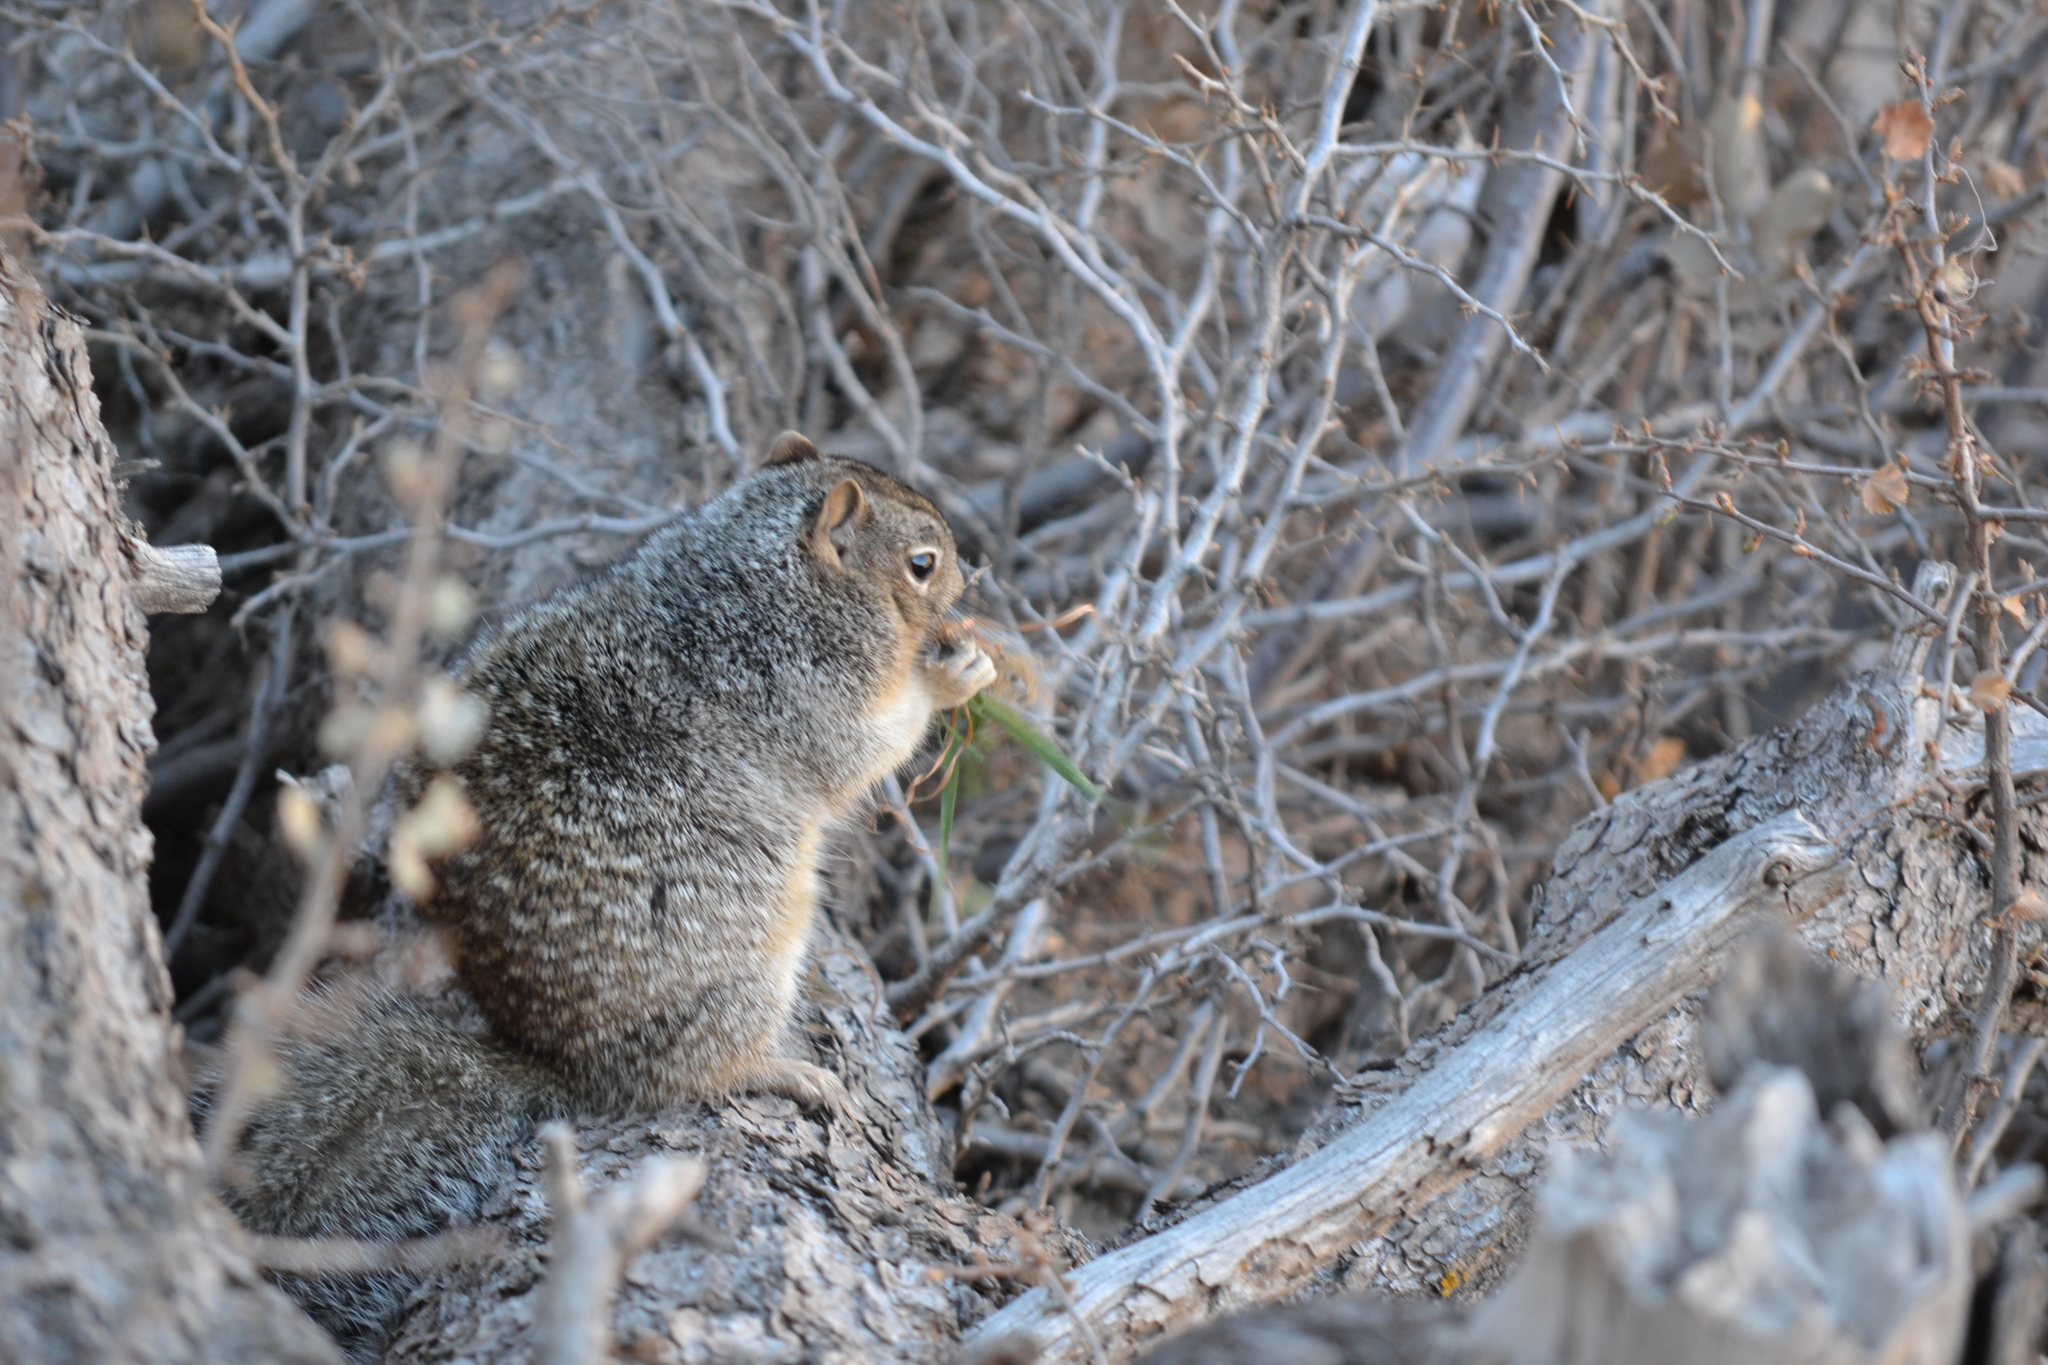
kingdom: Animalia
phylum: Chordata
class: Mammalia
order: Rodentia
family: Sciuridae
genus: Otospermophilus
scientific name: Otospermophilus variegatus
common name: Rock squirrel
